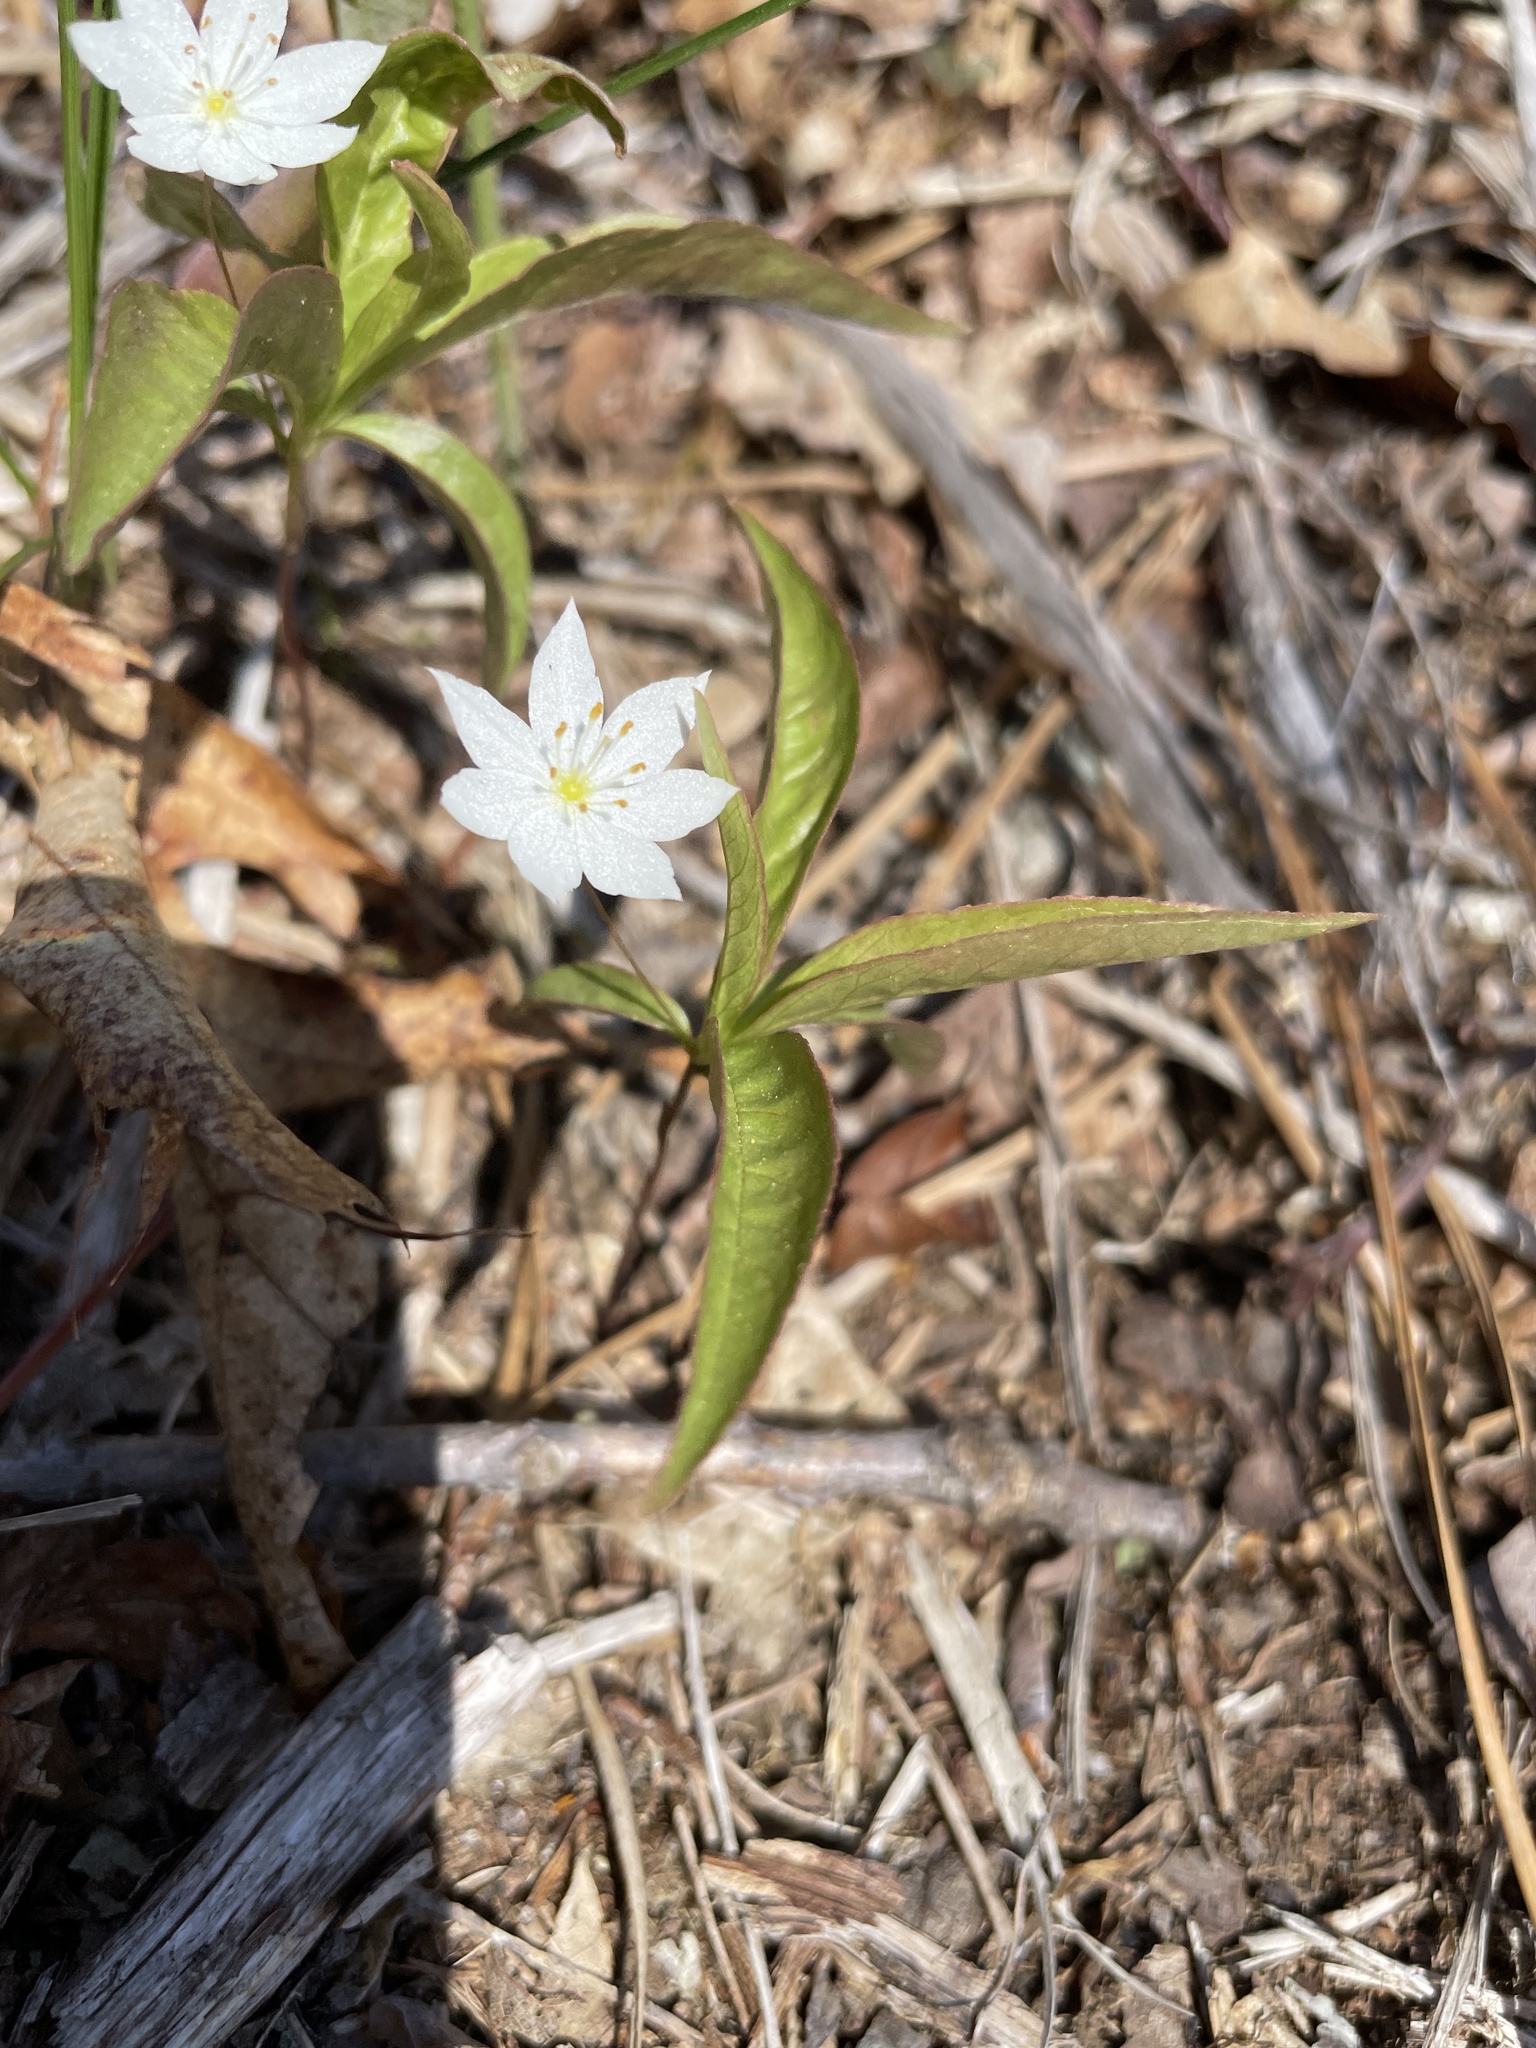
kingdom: Plantae
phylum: Tracheophyta
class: Magnoliopsida
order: Ericales
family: Primulaceae
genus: Lysimachia
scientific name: Lysimachia borealis
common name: American starflower
